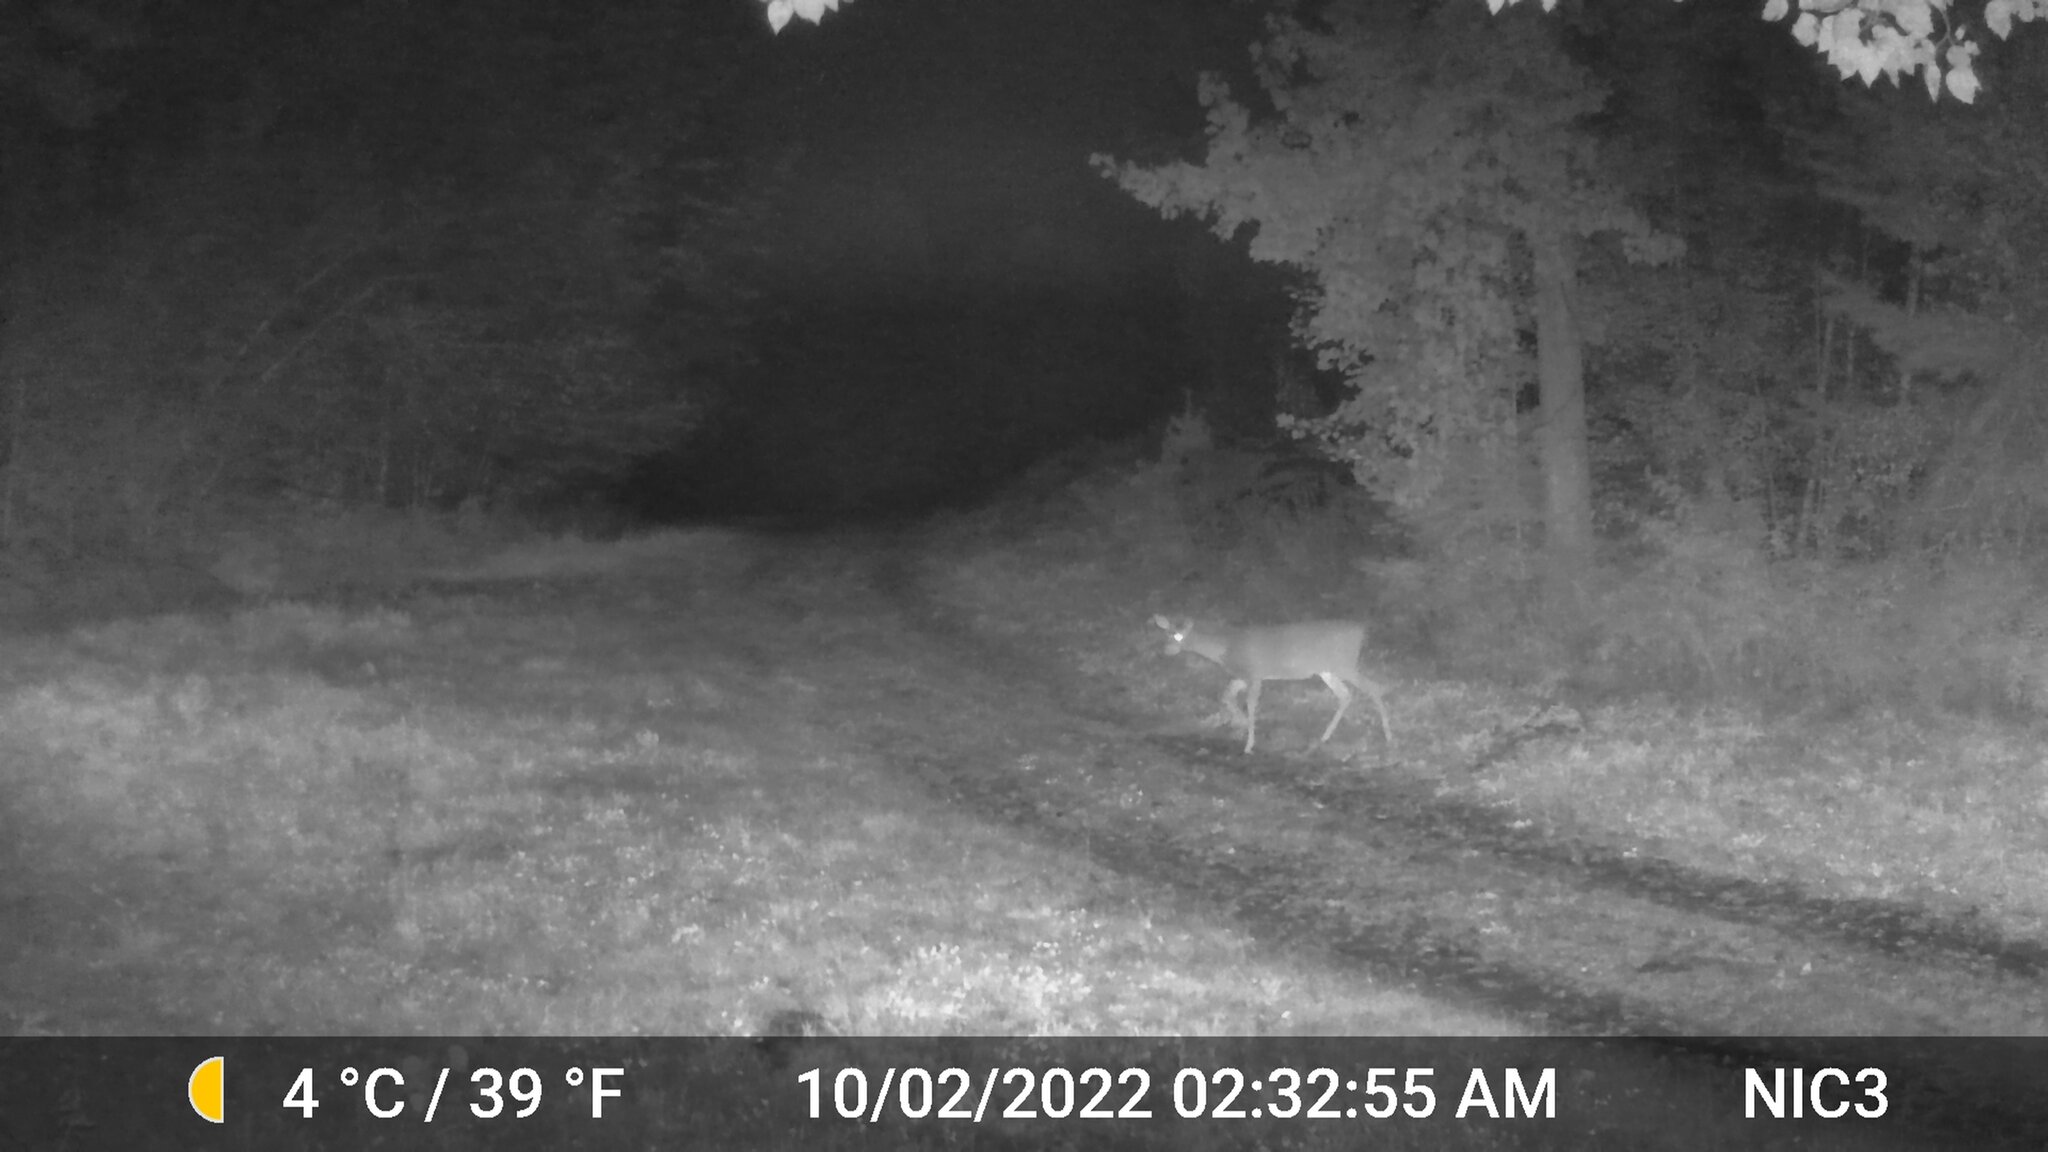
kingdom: Animalia
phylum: Chordata
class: Mammalia
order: Artiodactyla
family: Cervidae
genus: Odocoileus
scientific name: Odocoileus virginianus
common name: White-tailed deer
